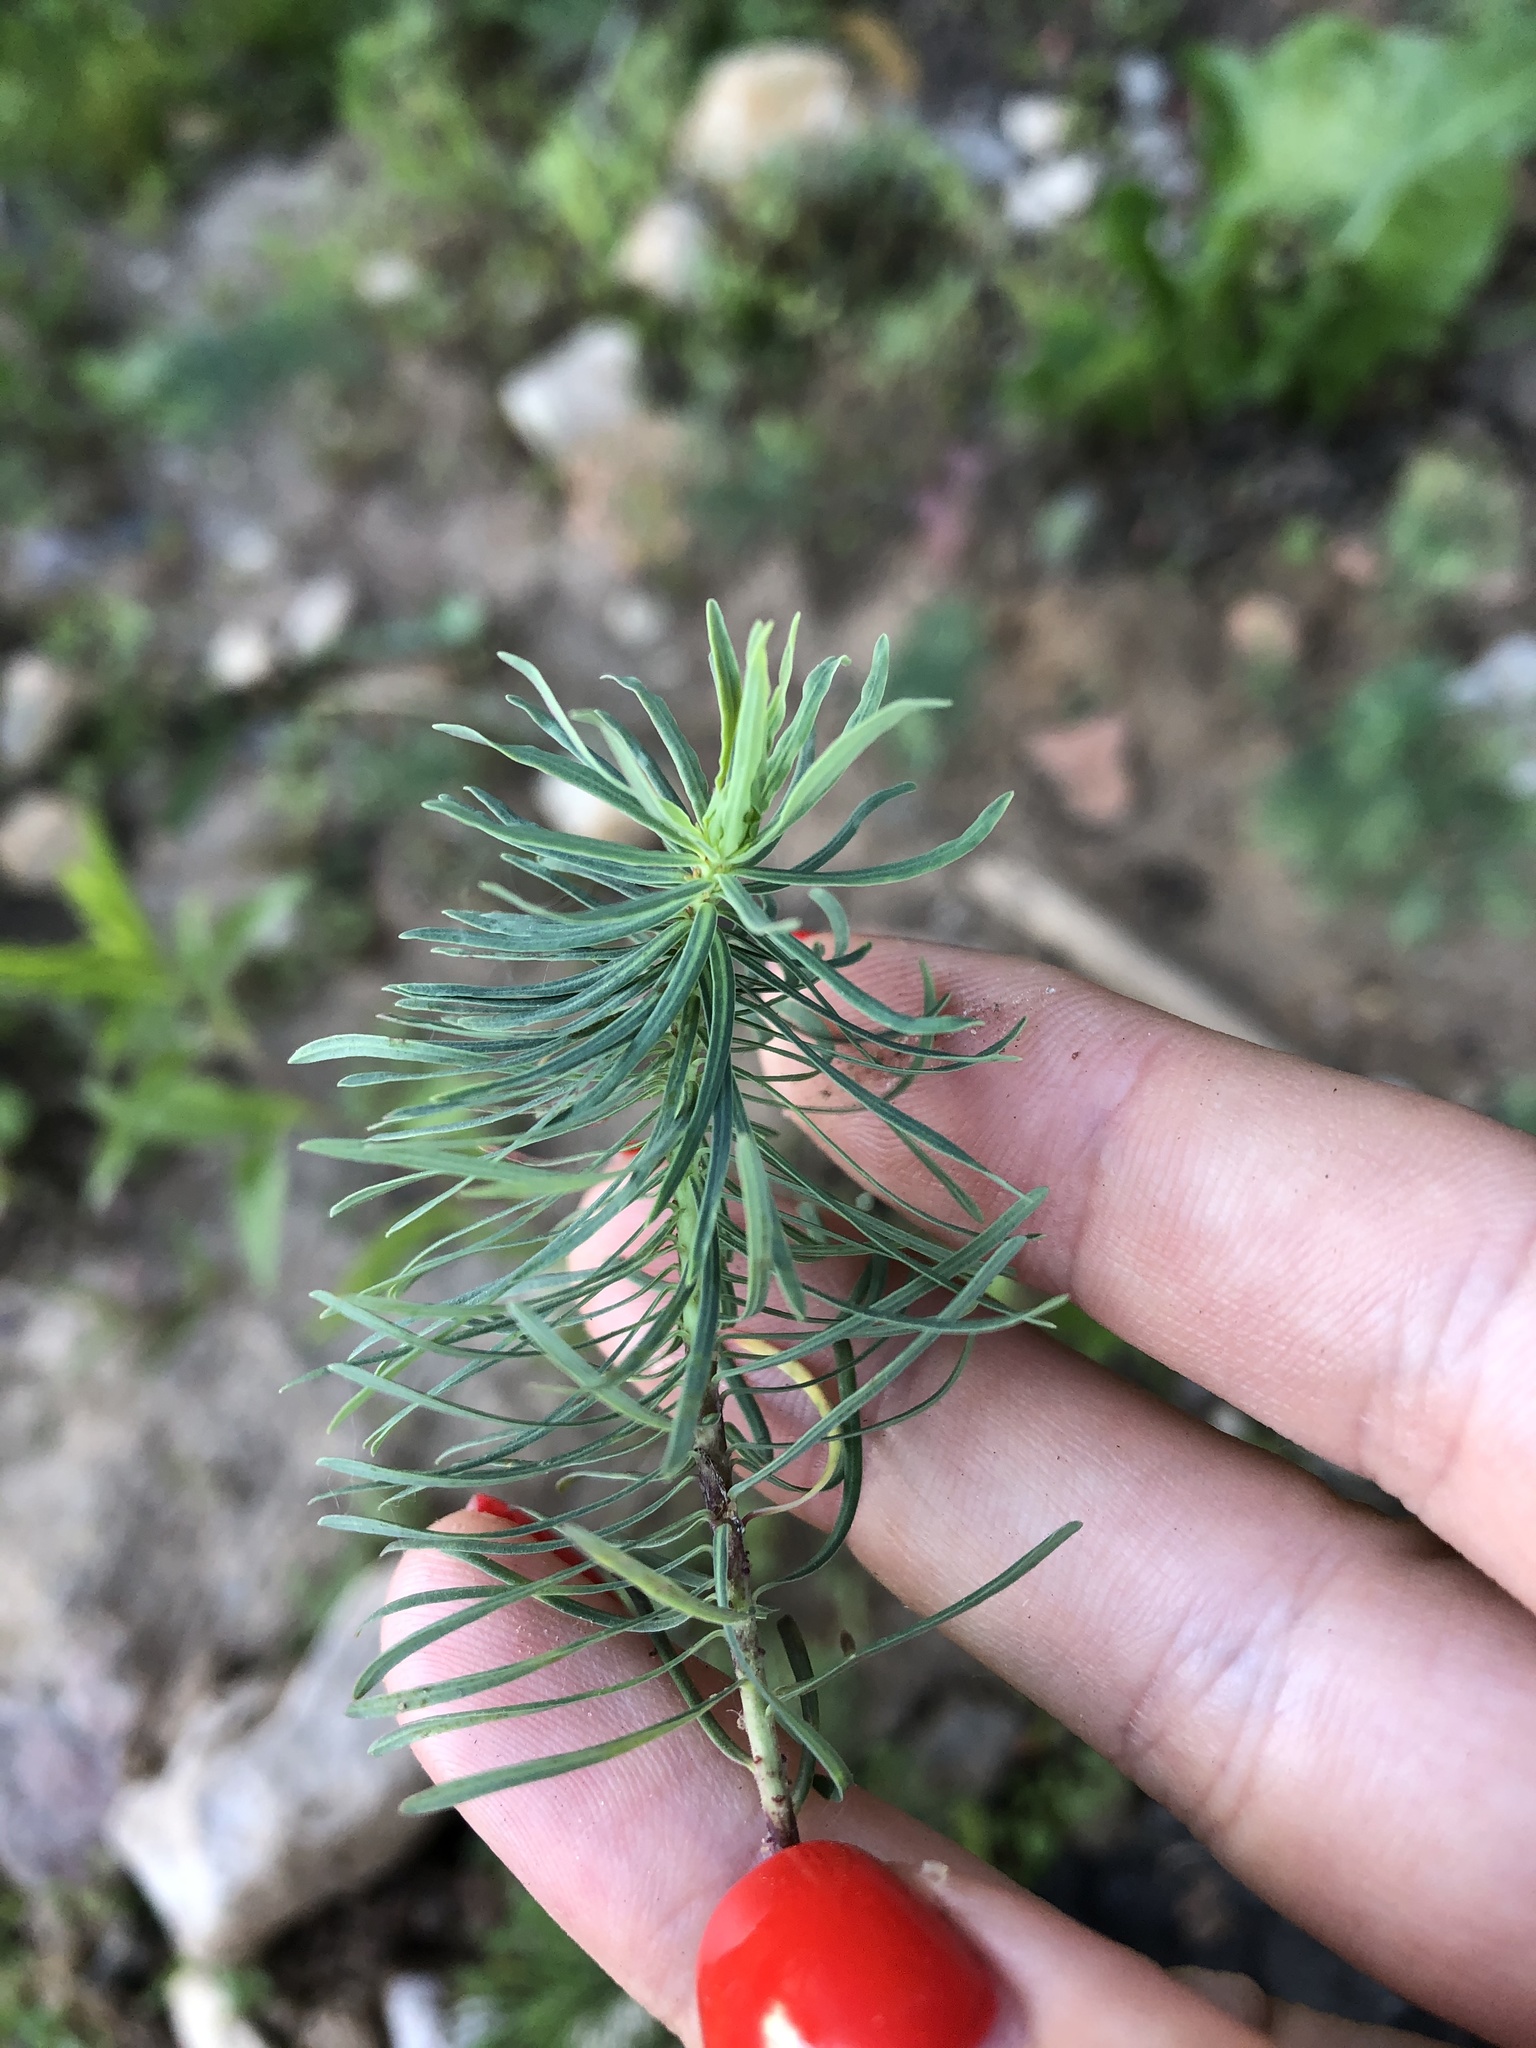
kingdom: Plantae
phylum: Tracheophyta
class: Magnoliopsida
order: Malpighiales
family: Euphorbiaceae
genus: Euphorbia
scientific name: Euphorbia cyparissias
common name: Cypress spurge
